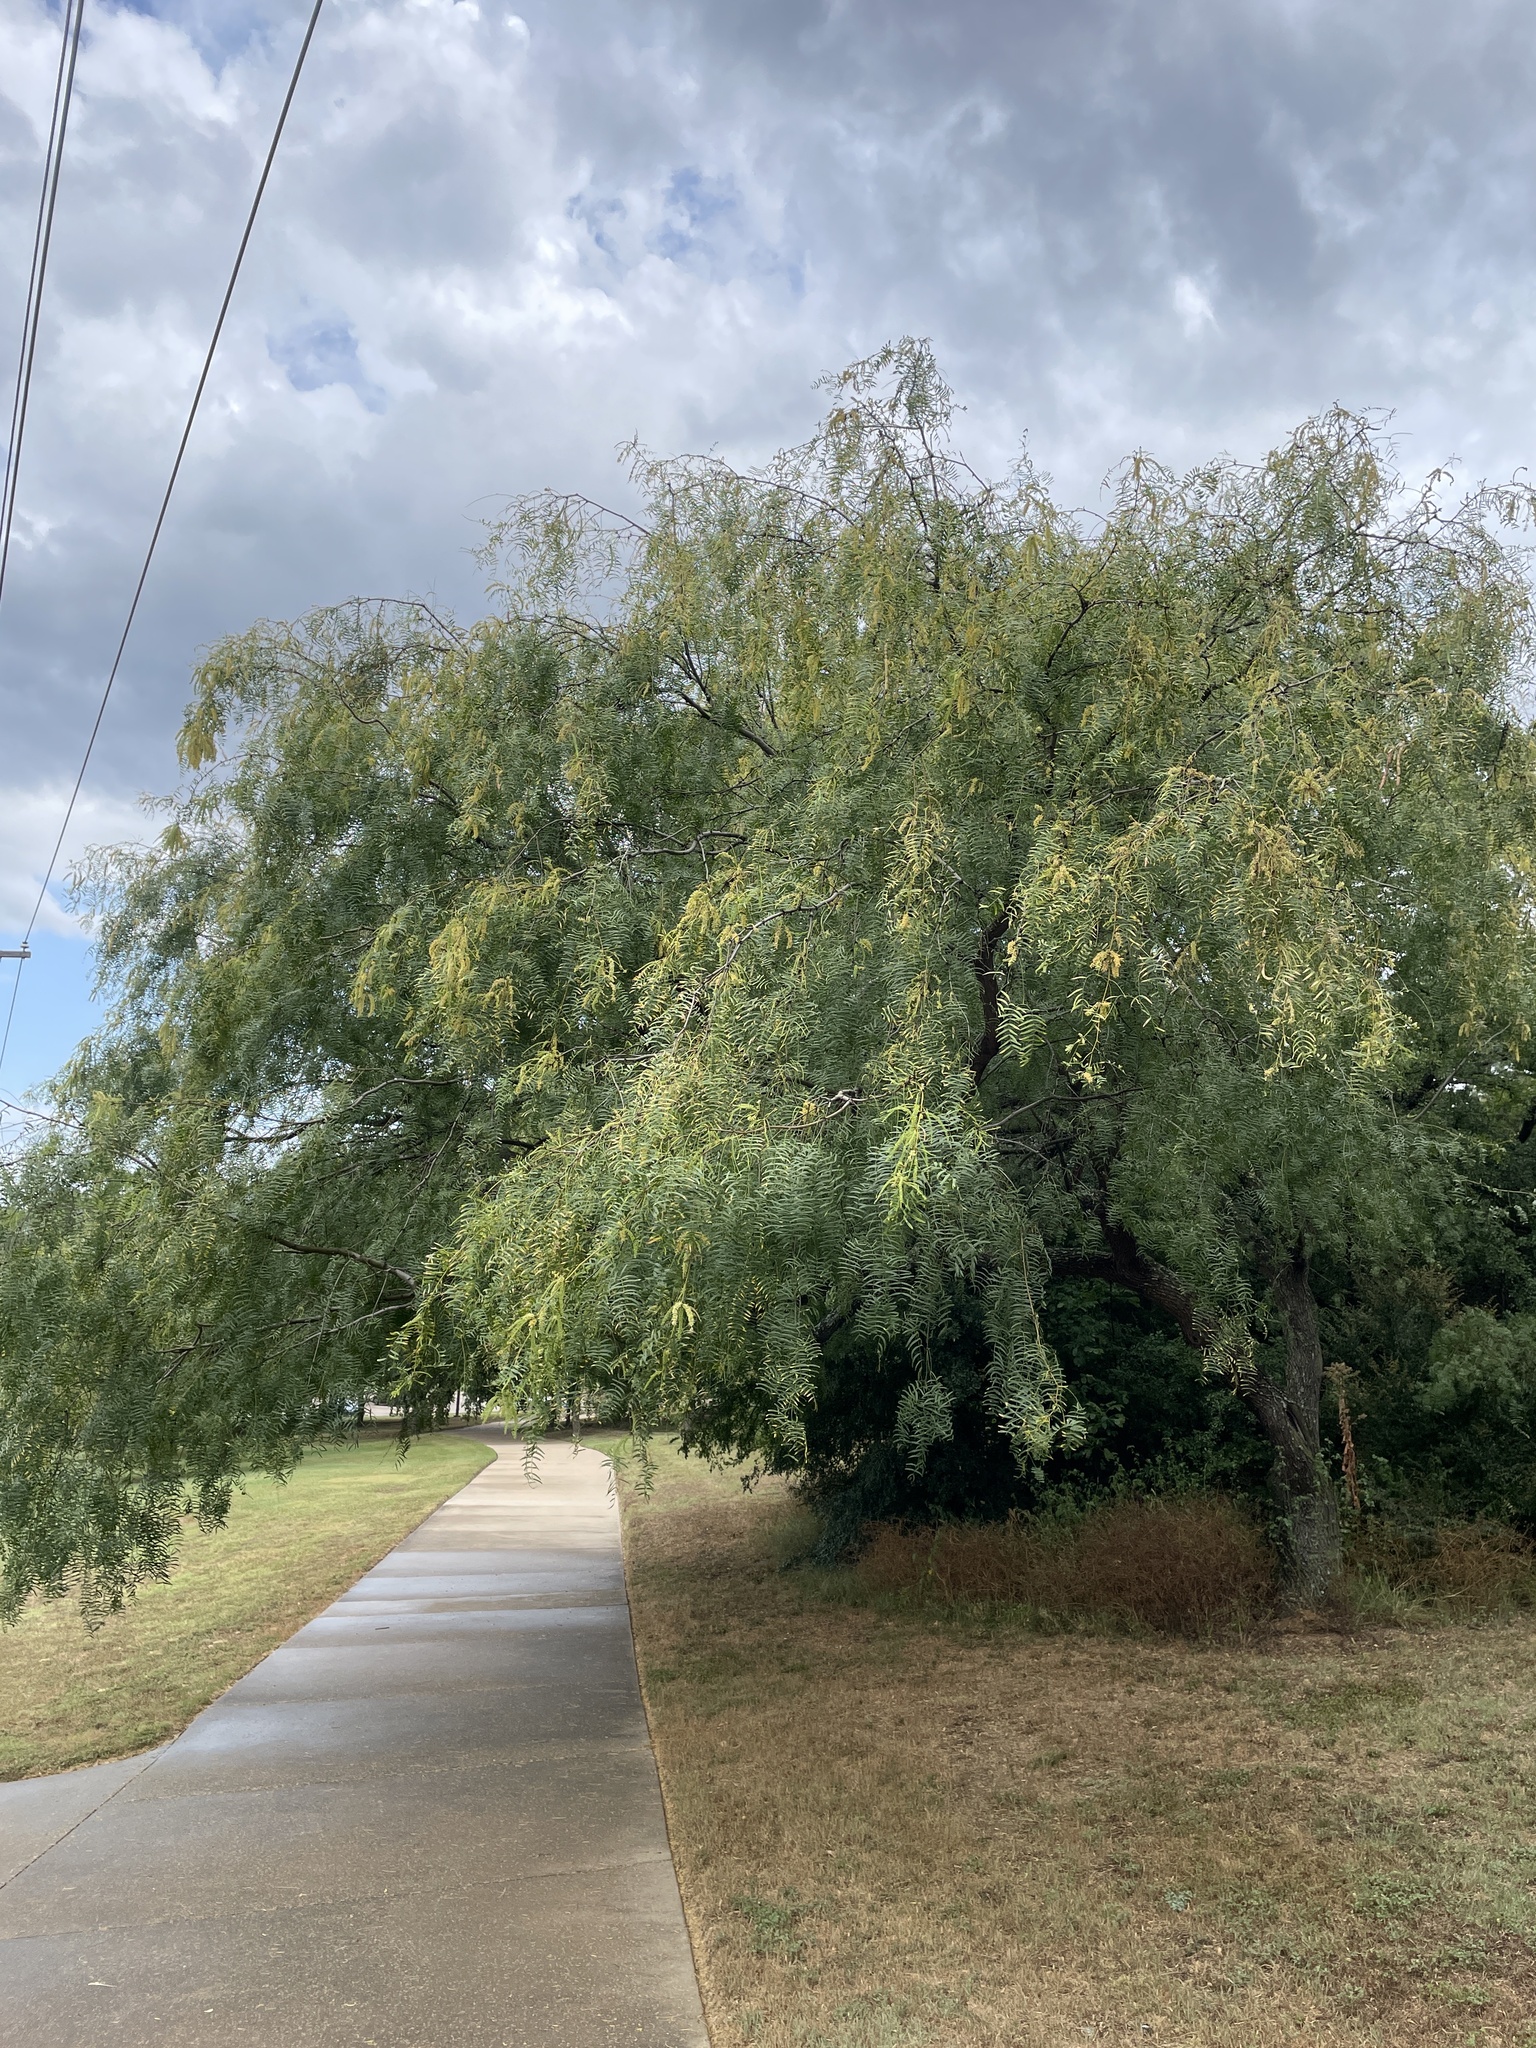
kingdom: Plantae
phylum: Tracheophyta
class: Magnoliopsida
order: Fabales
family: Fabaceae
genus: Prosopis
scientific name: Prosopis glandulosa
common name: Honey mesquite
